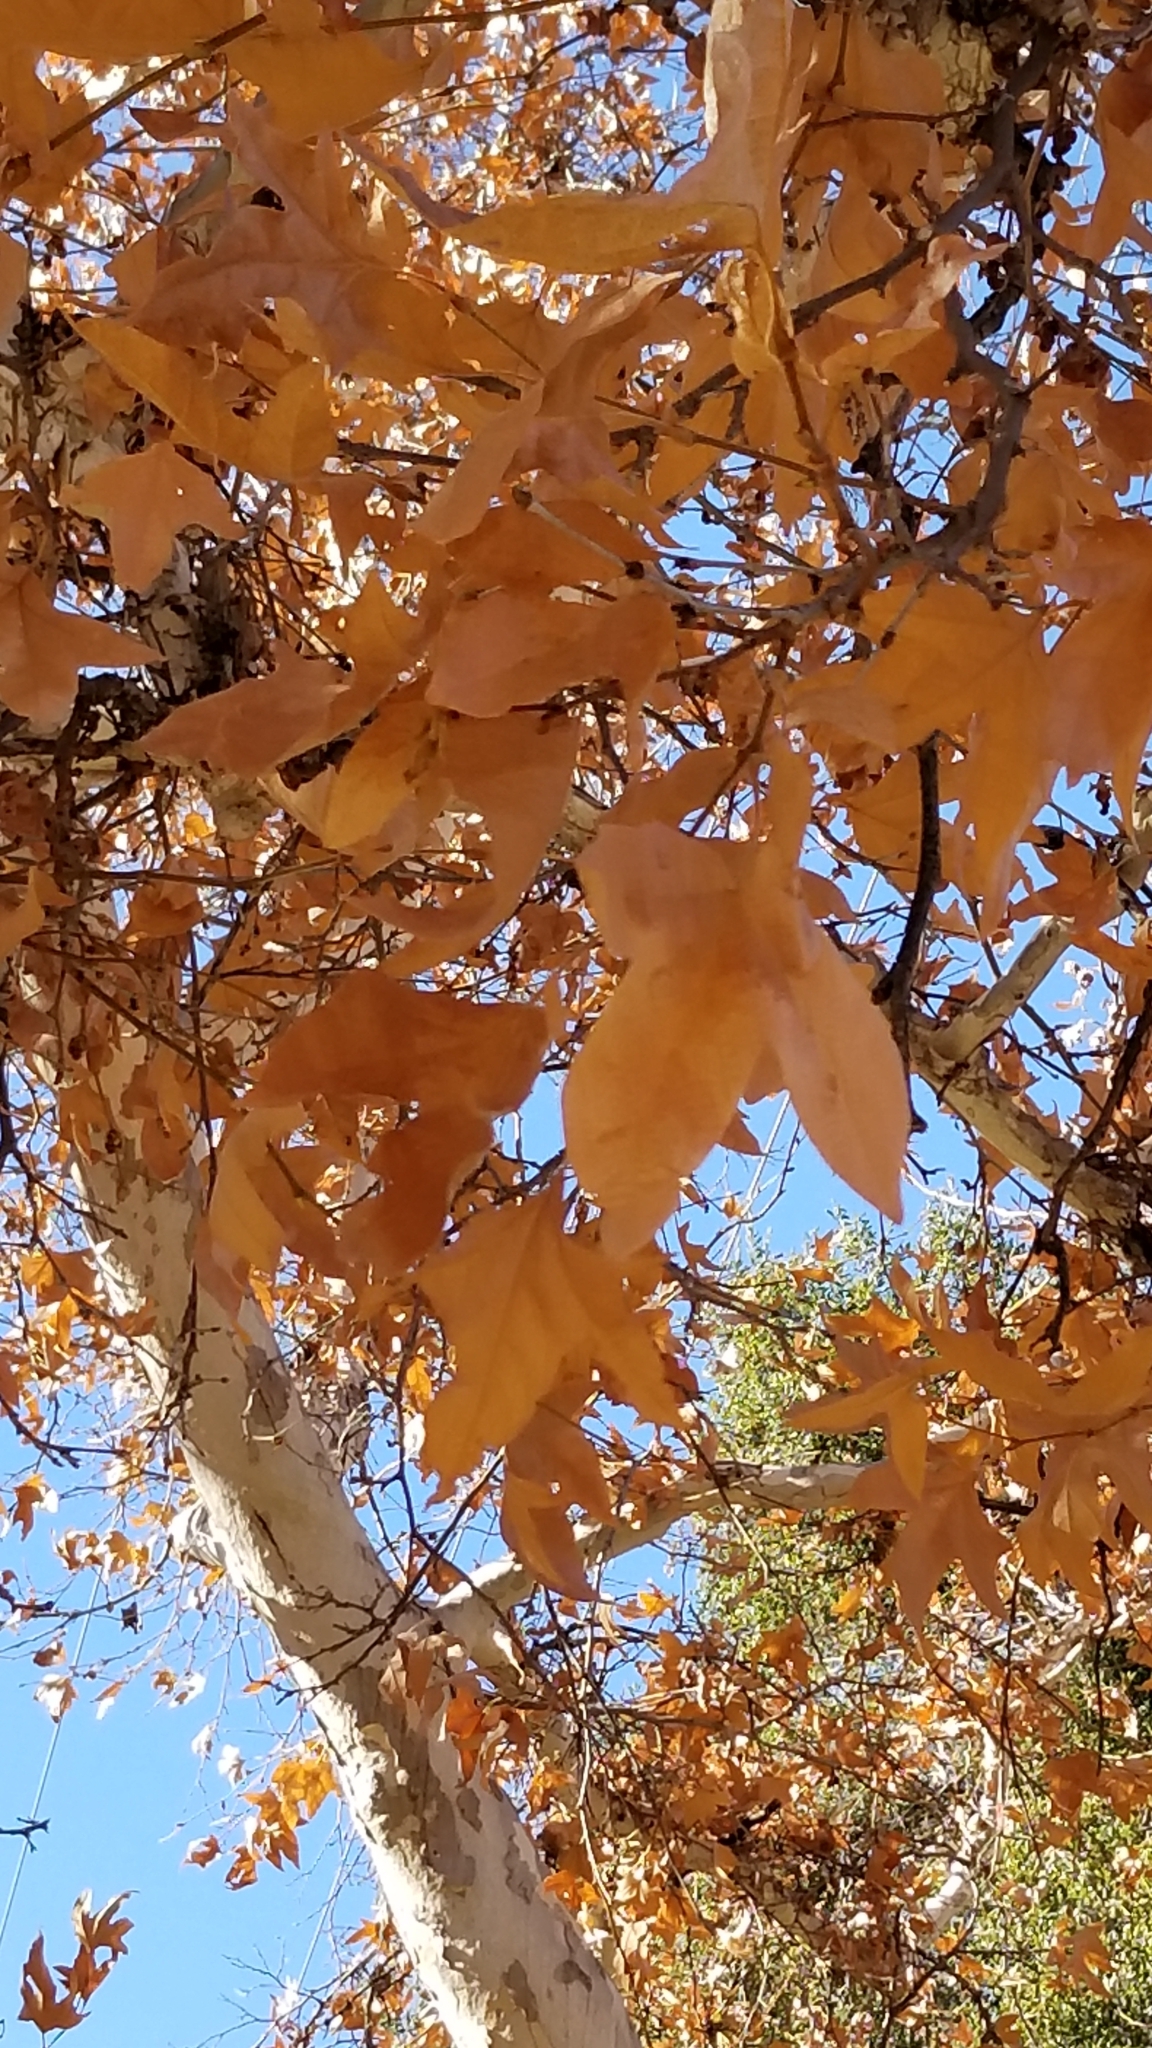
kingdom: Plantae
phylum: Tracheophyta
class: Magnoliopsida
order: Proteales
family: Platanaceae
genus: Platanus
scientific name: Platanus racemosa
